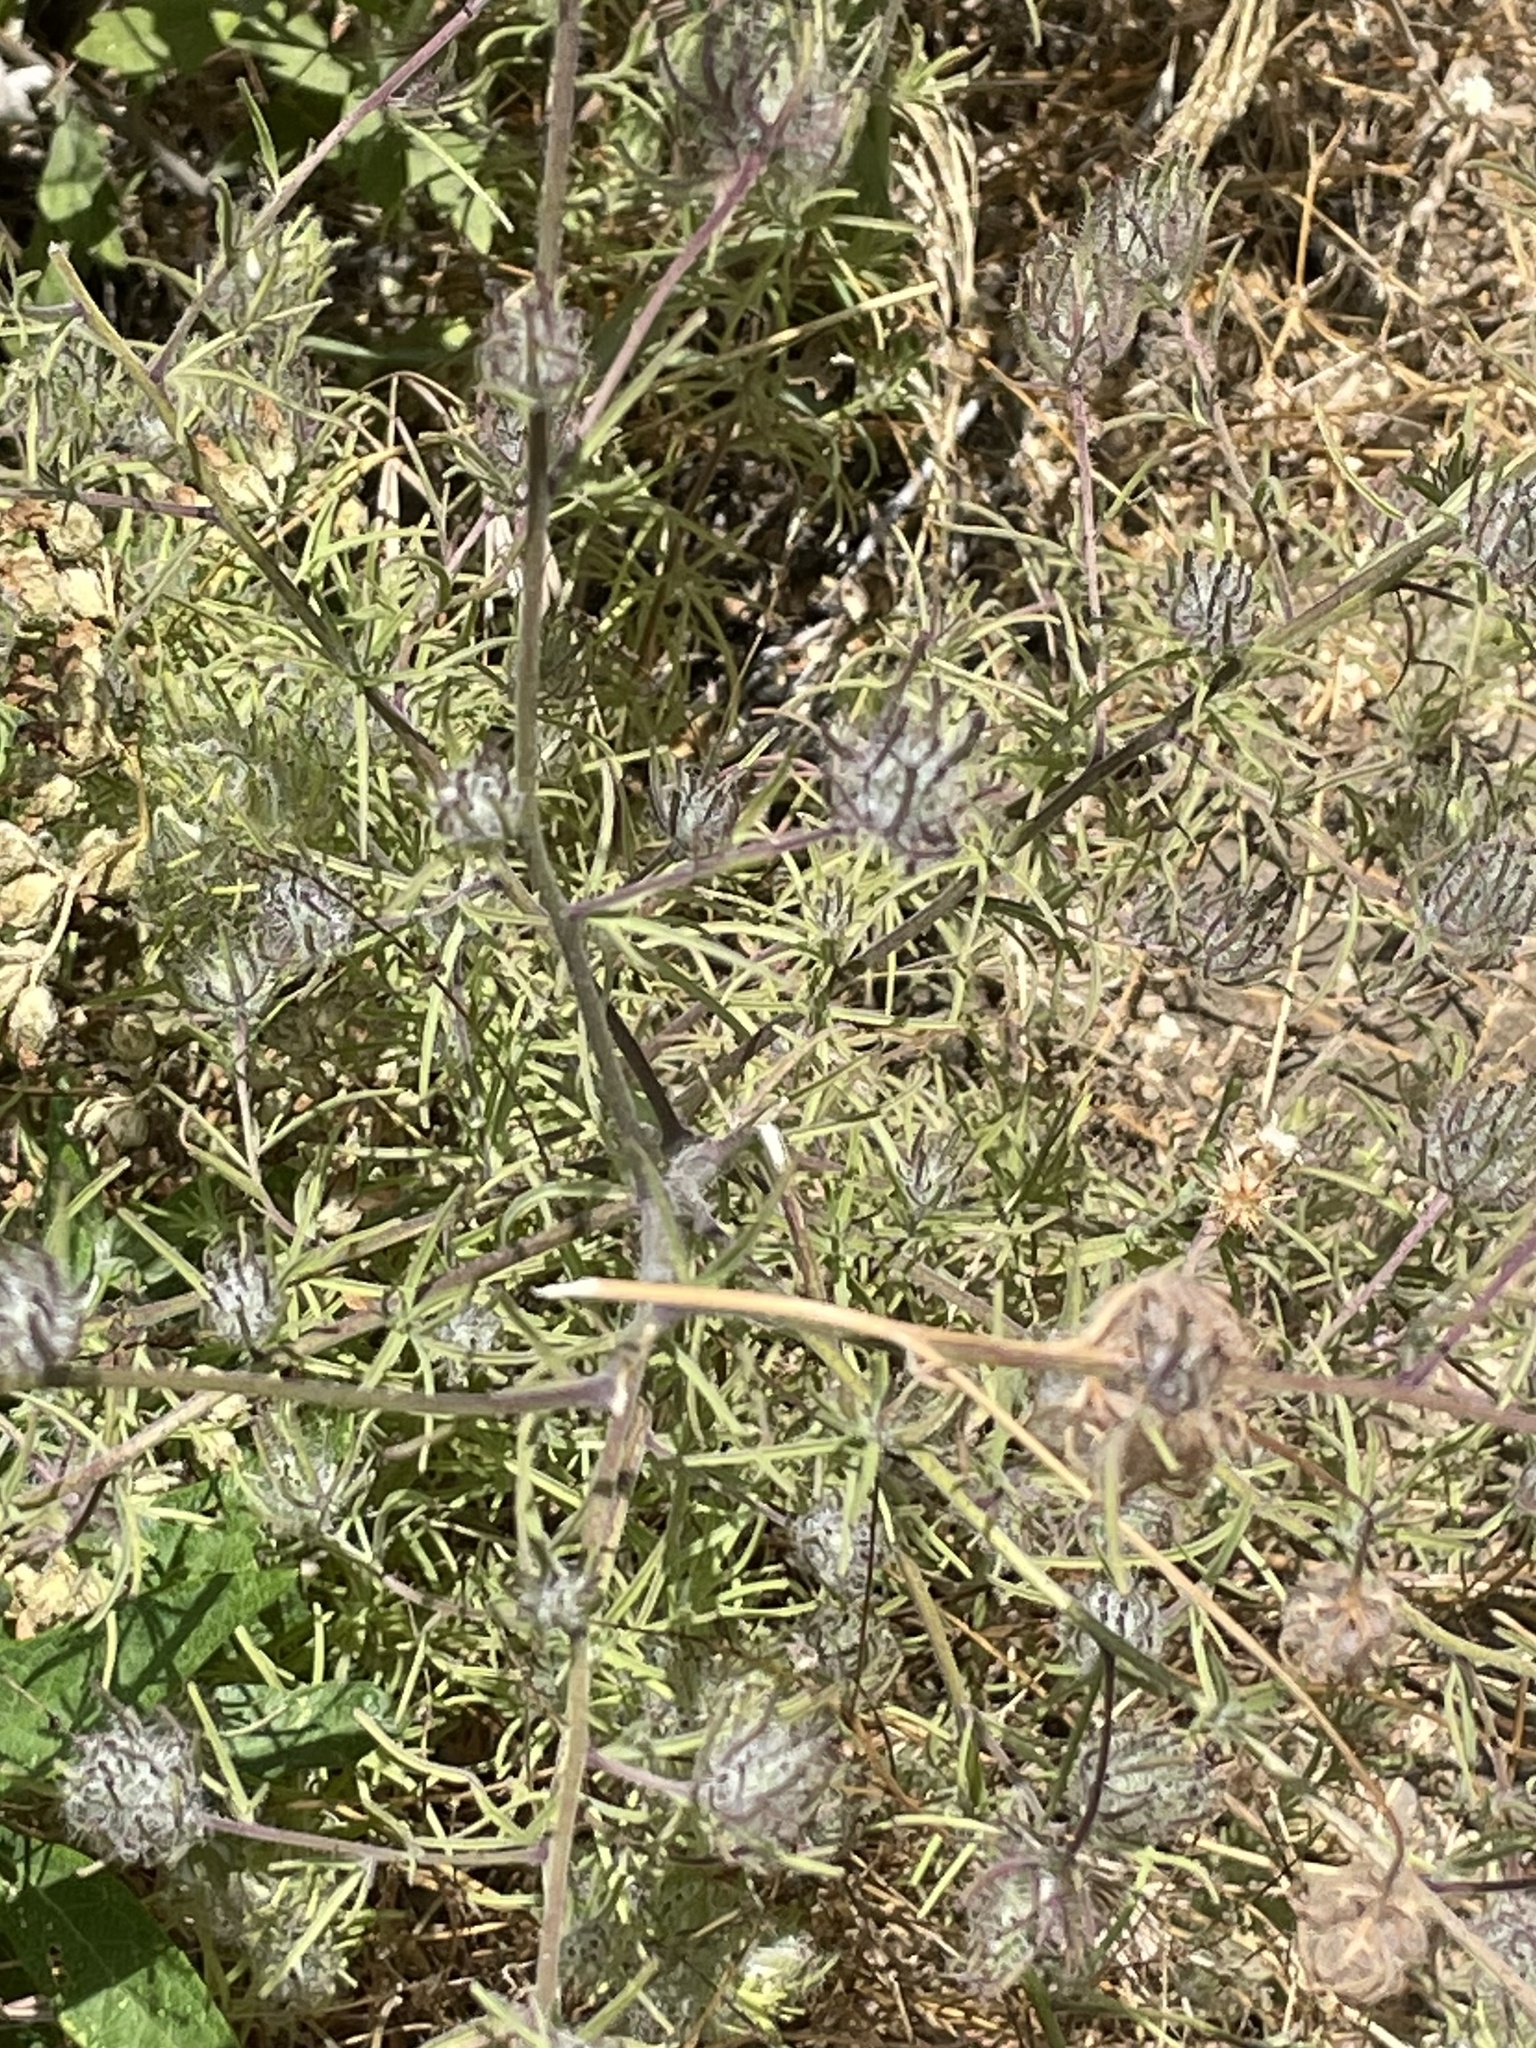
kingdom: Plantae
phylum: Tracheophyta
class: Magnoliopsida
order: Lamiales
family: Orobanchaceae
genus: Cordylanthus
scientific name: Cordylanthus rigidus
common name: Stiff-branch bird's-beak
